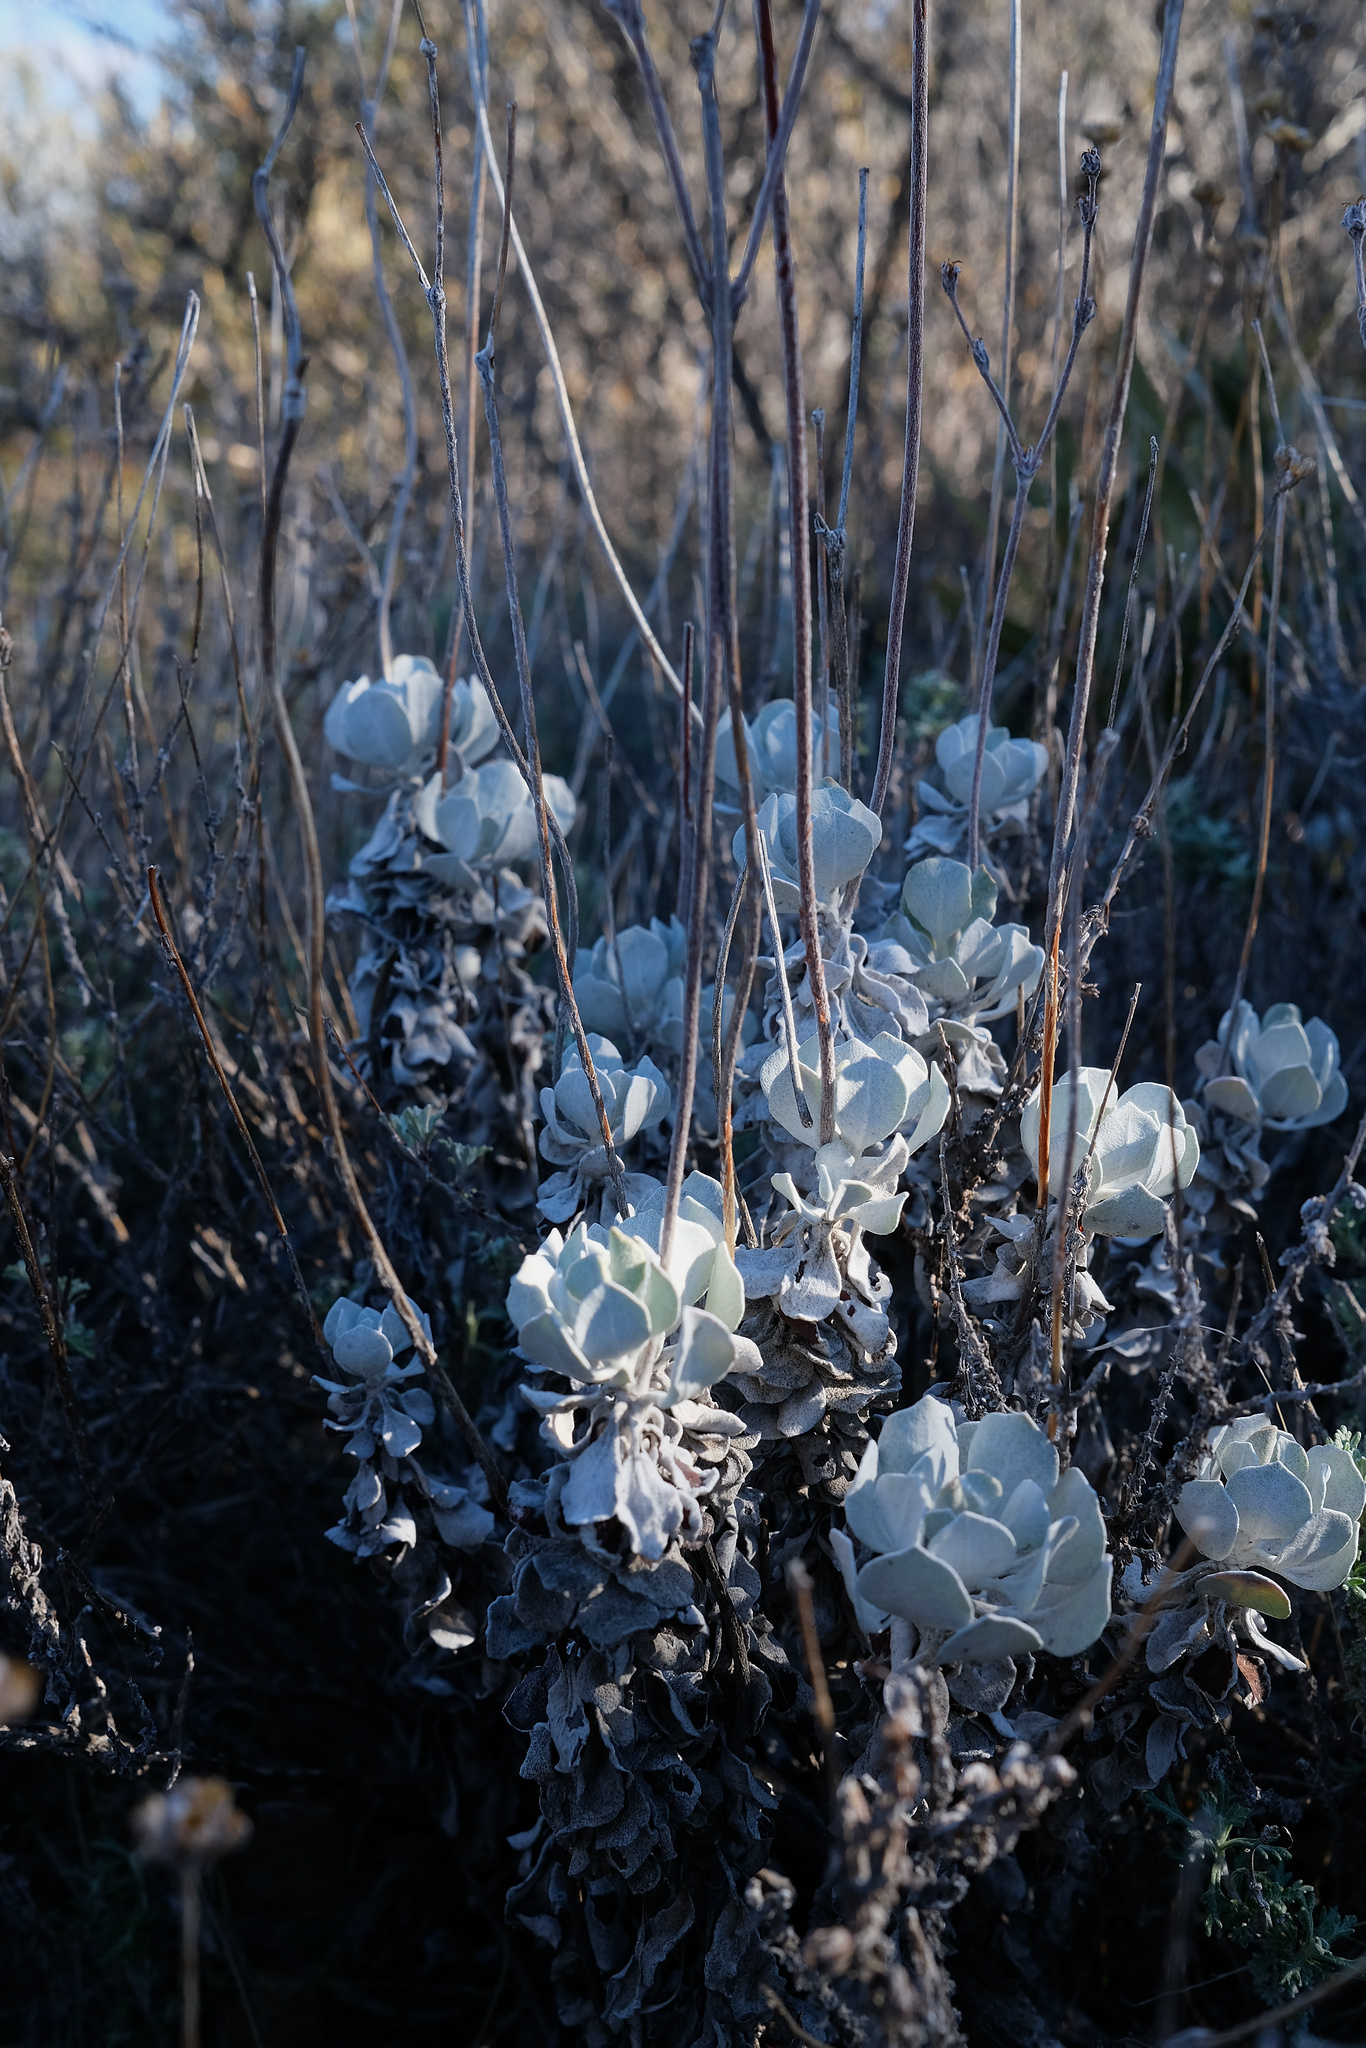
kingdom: Plantae
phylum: Tracheophyta
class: Magnoliopsida
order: Caryophyllales
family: Polygonaceae
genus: Eriogonum
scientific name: Eriogonum saxatile
